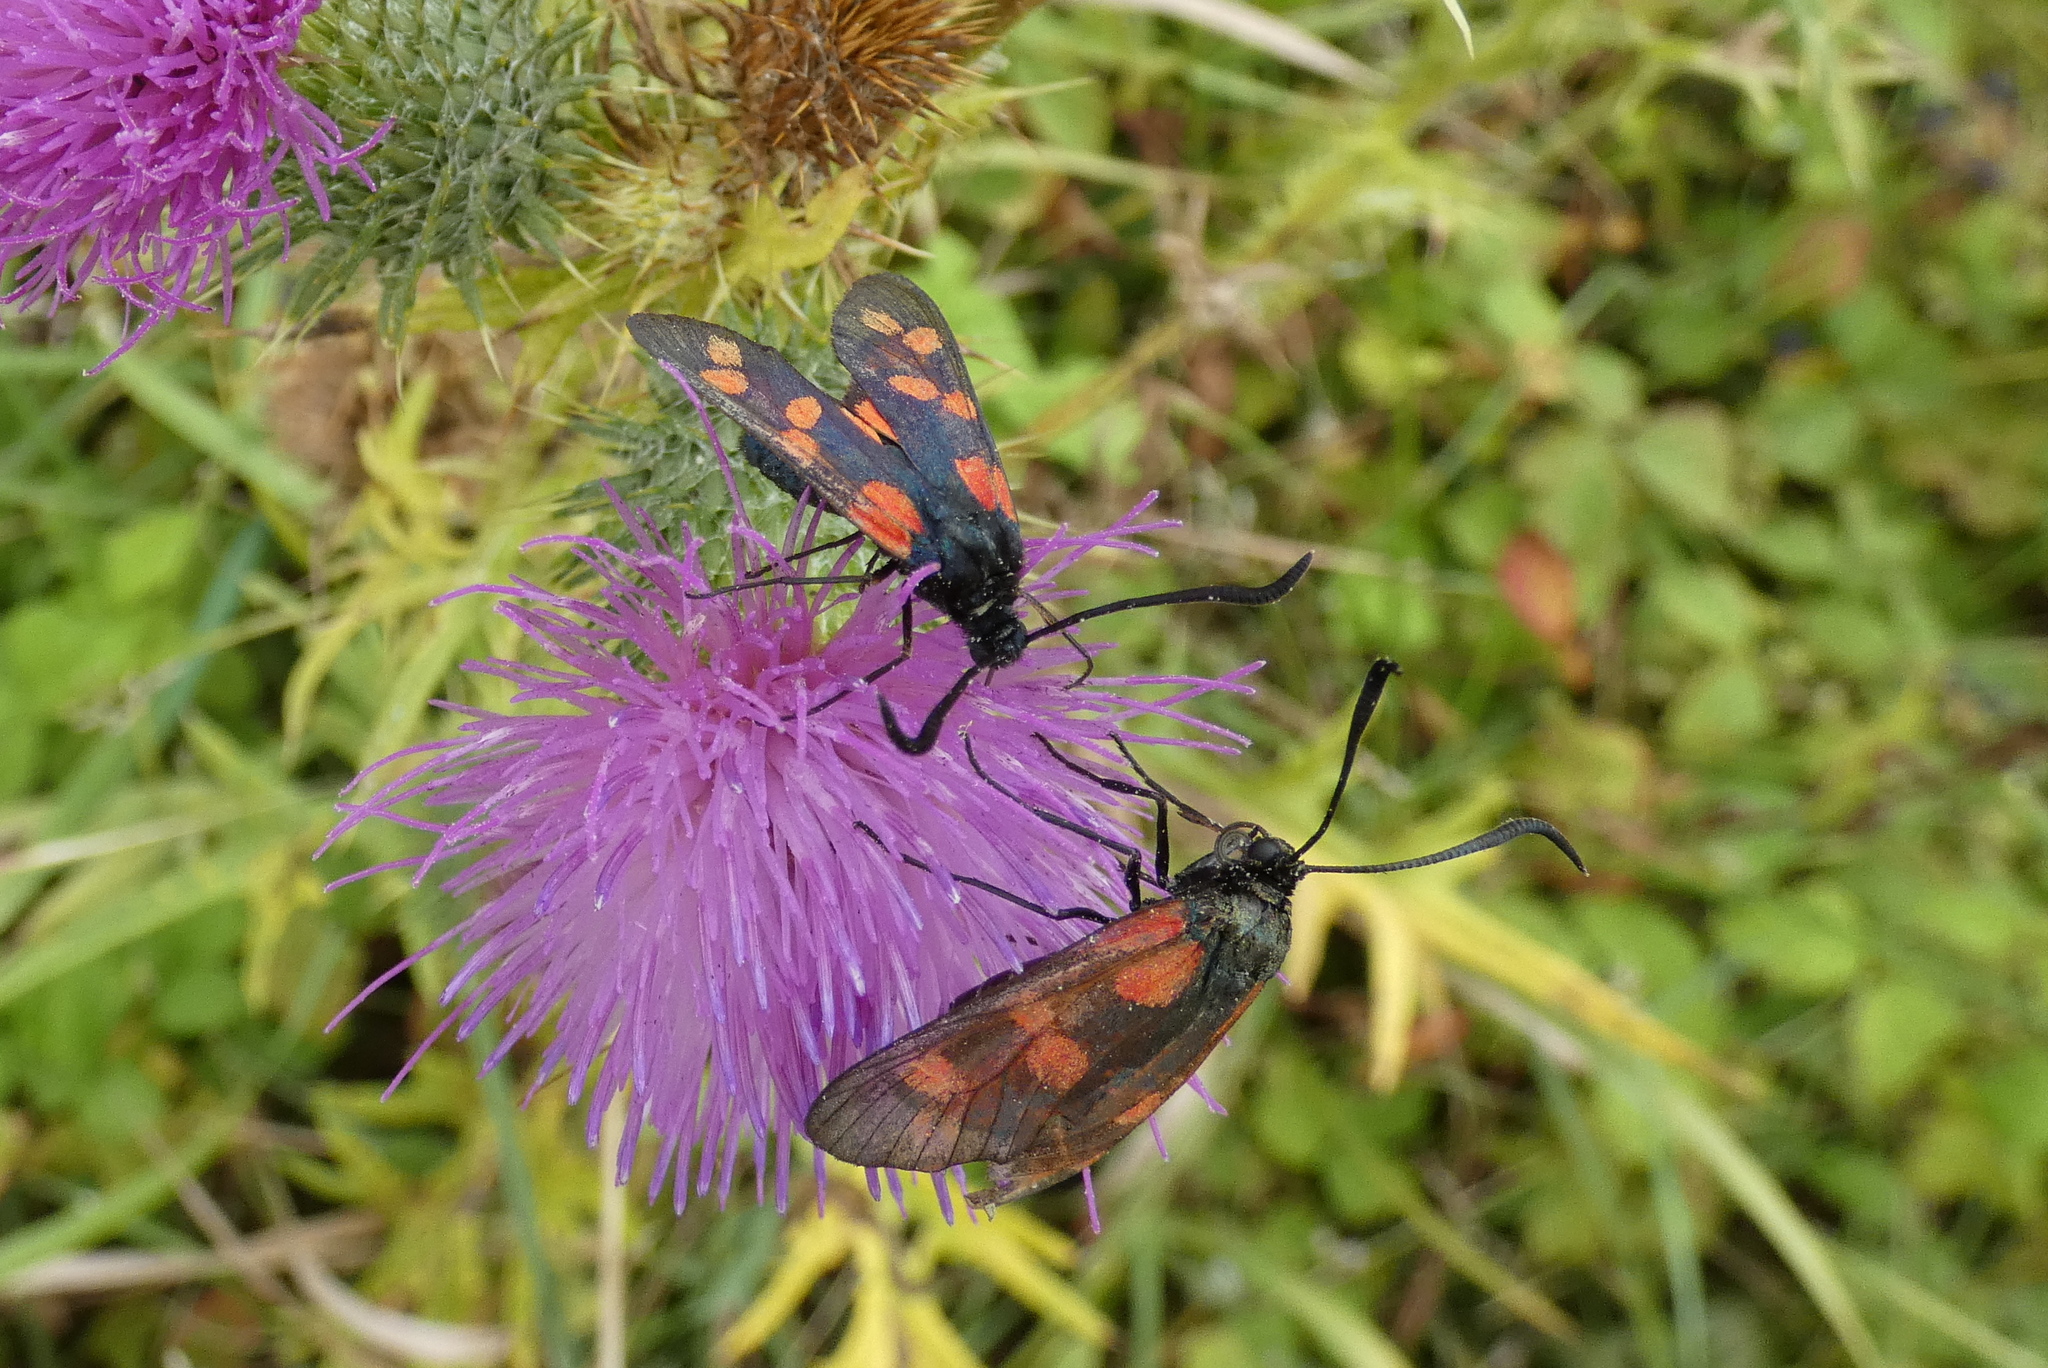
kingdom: Animalia
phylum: Arthropoda
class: Insecta
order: Lepidoptera
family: Zygaenidae
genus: Zygaena
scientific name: Zygaena filipendulae
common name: Six-spot burnet
